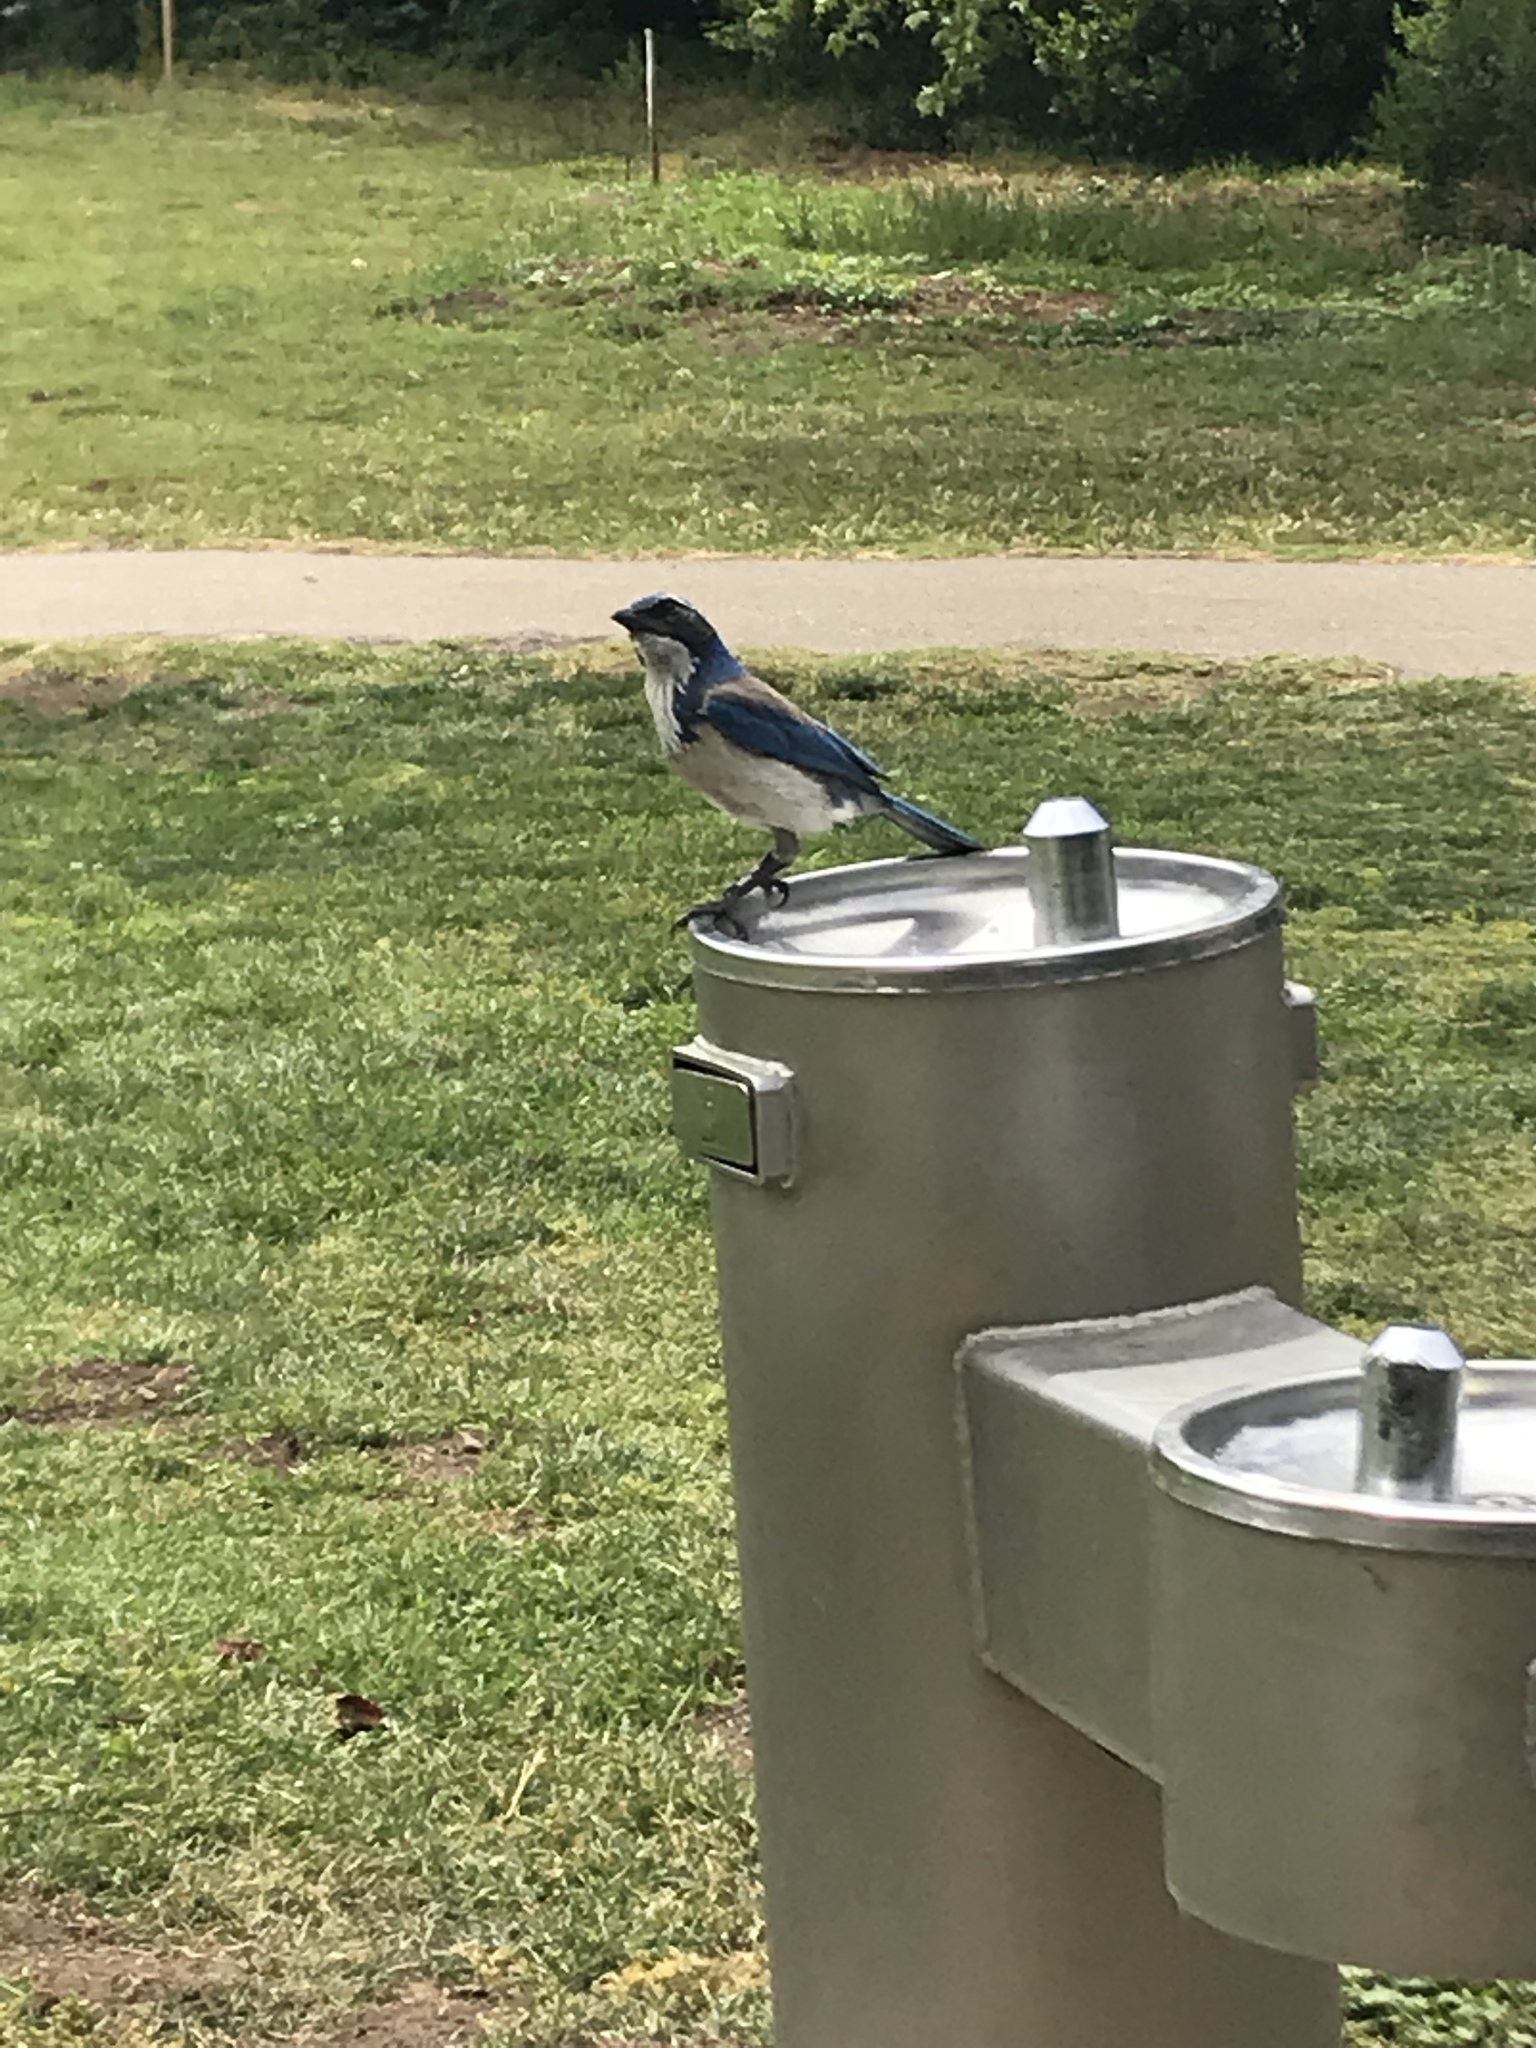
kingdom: Animalia
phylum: Chordata
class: Aves
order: Passeriformes
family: Corvidae
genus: Aphelocoma
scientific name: Aphelocoma californica
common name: California scrub-jay
